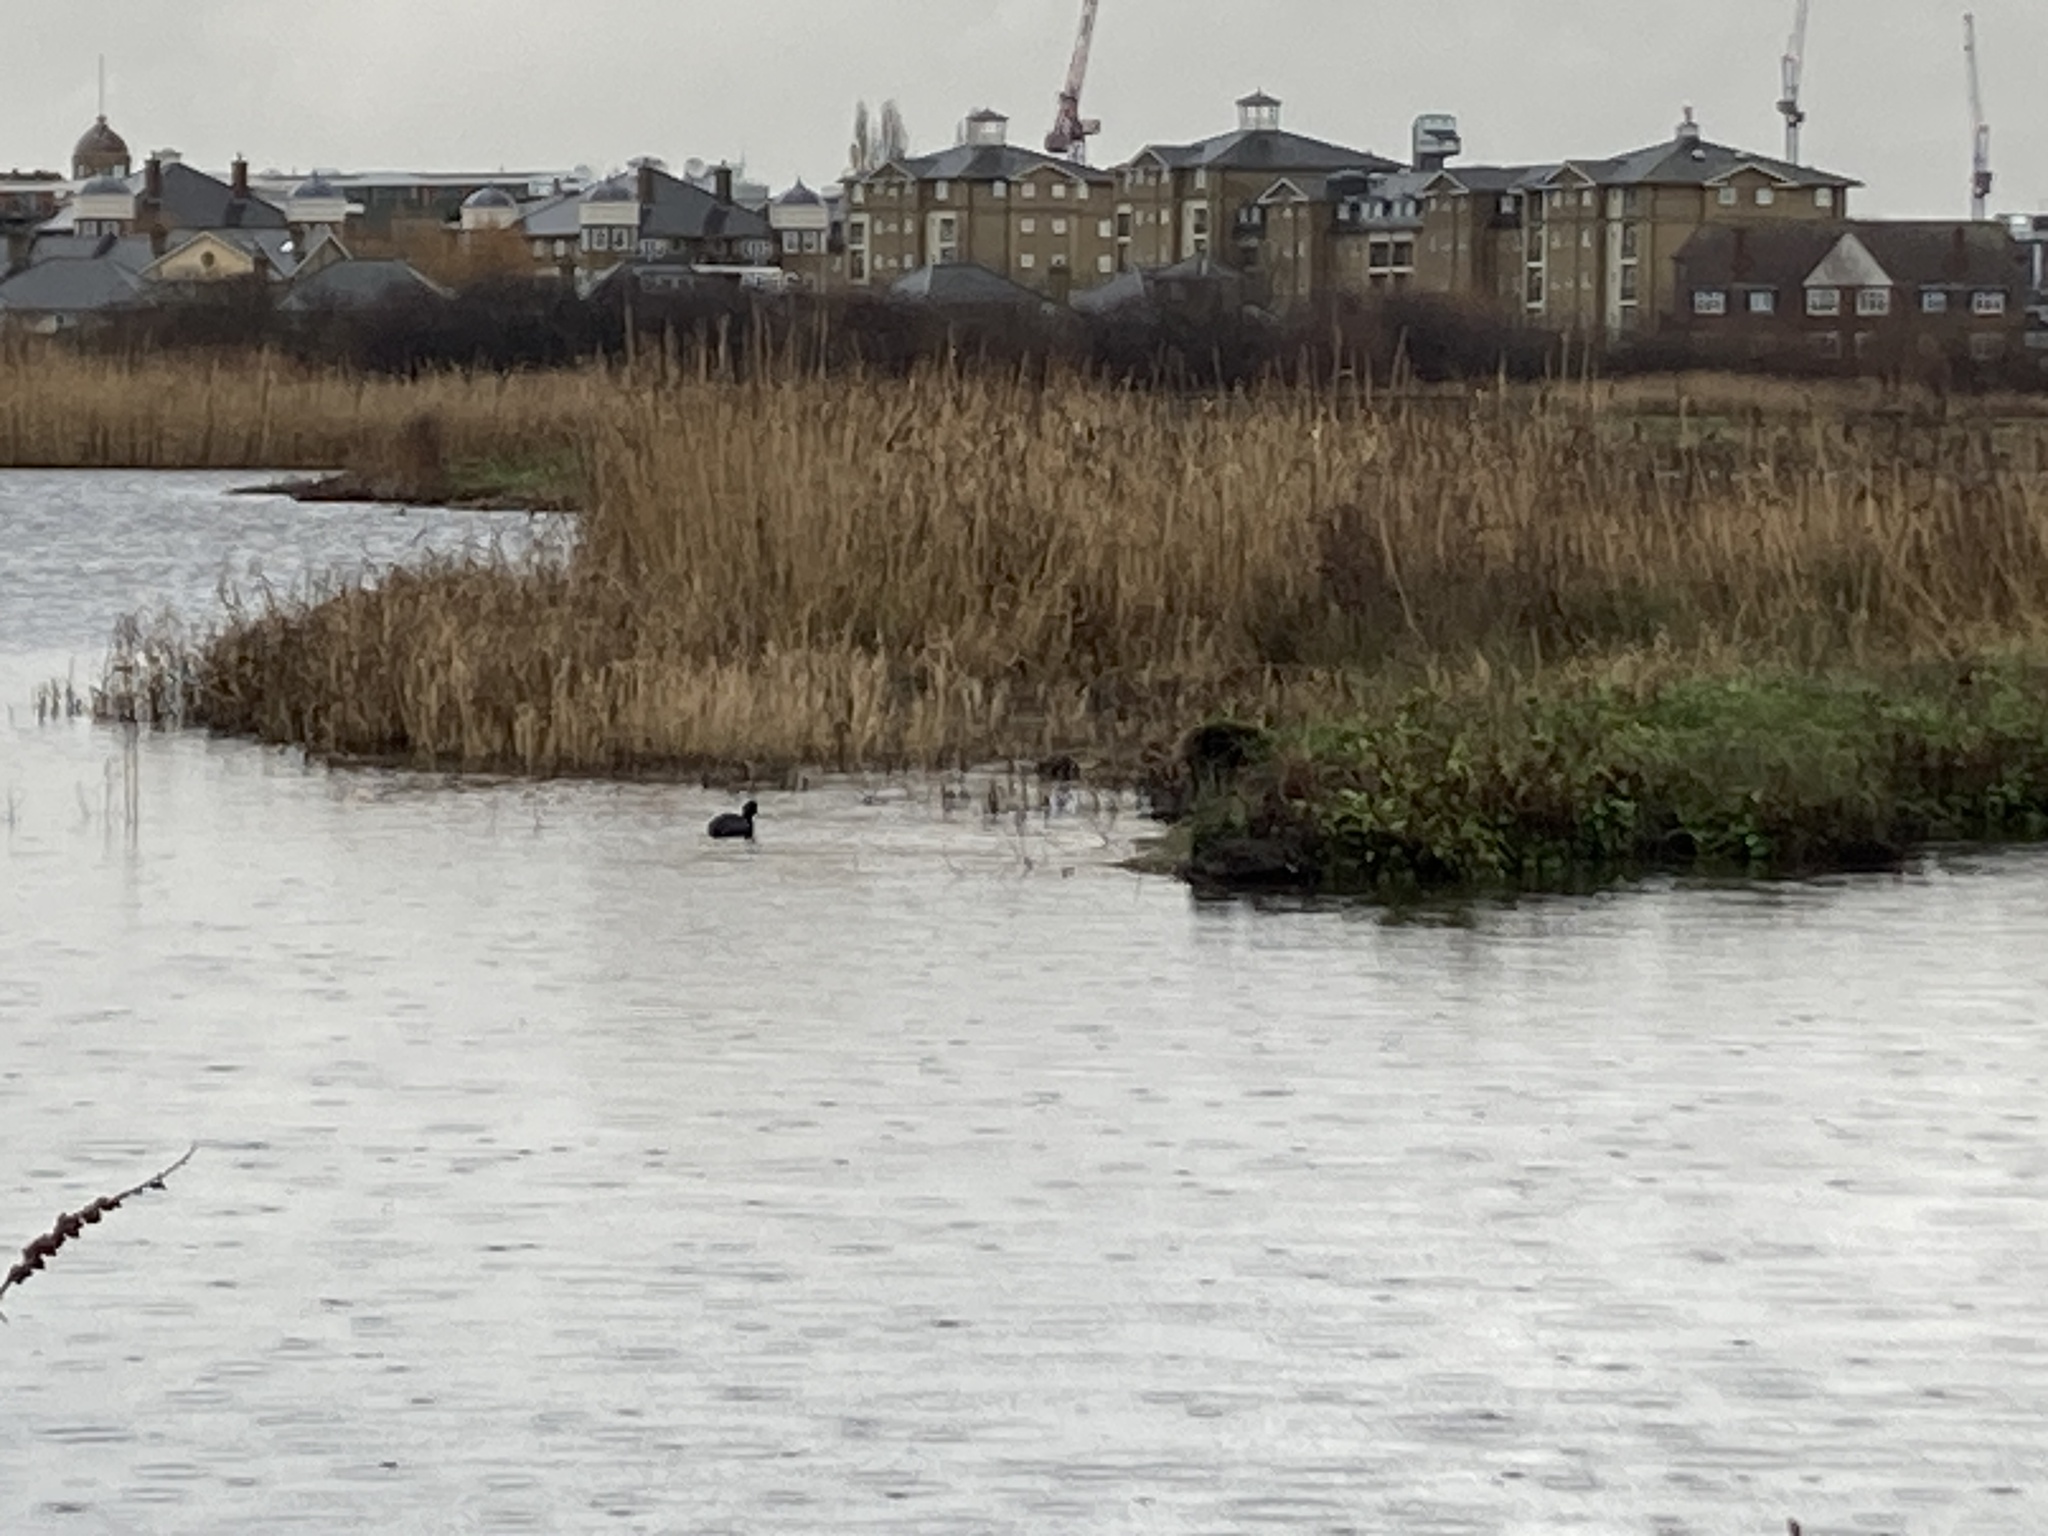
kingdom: Animalia
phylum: Chordata
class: Aves
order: Gruiformes
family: Rallidae
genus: Fulica
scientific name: Fulica atra
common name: Eurasian coot
